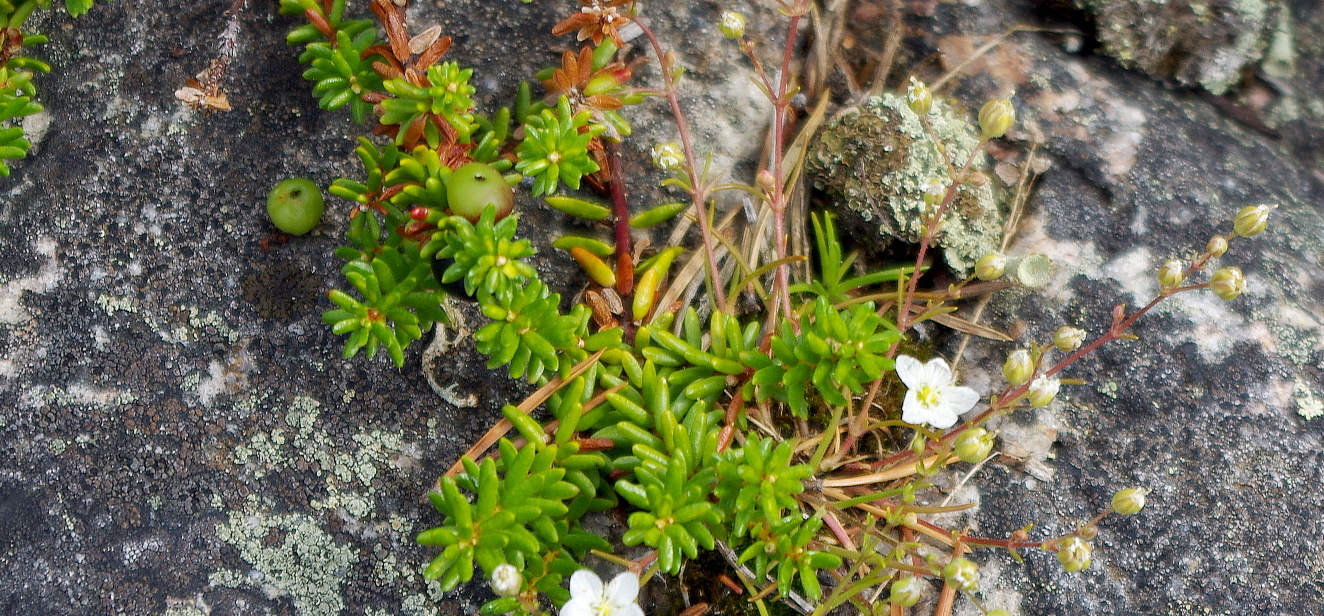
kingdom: Plantae
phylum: Tracheophyta
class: Magnoliopsida
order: Ericales
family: Ericaceae
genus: Empetrum
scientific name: Empetrum nigrum
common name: Black crowberry
